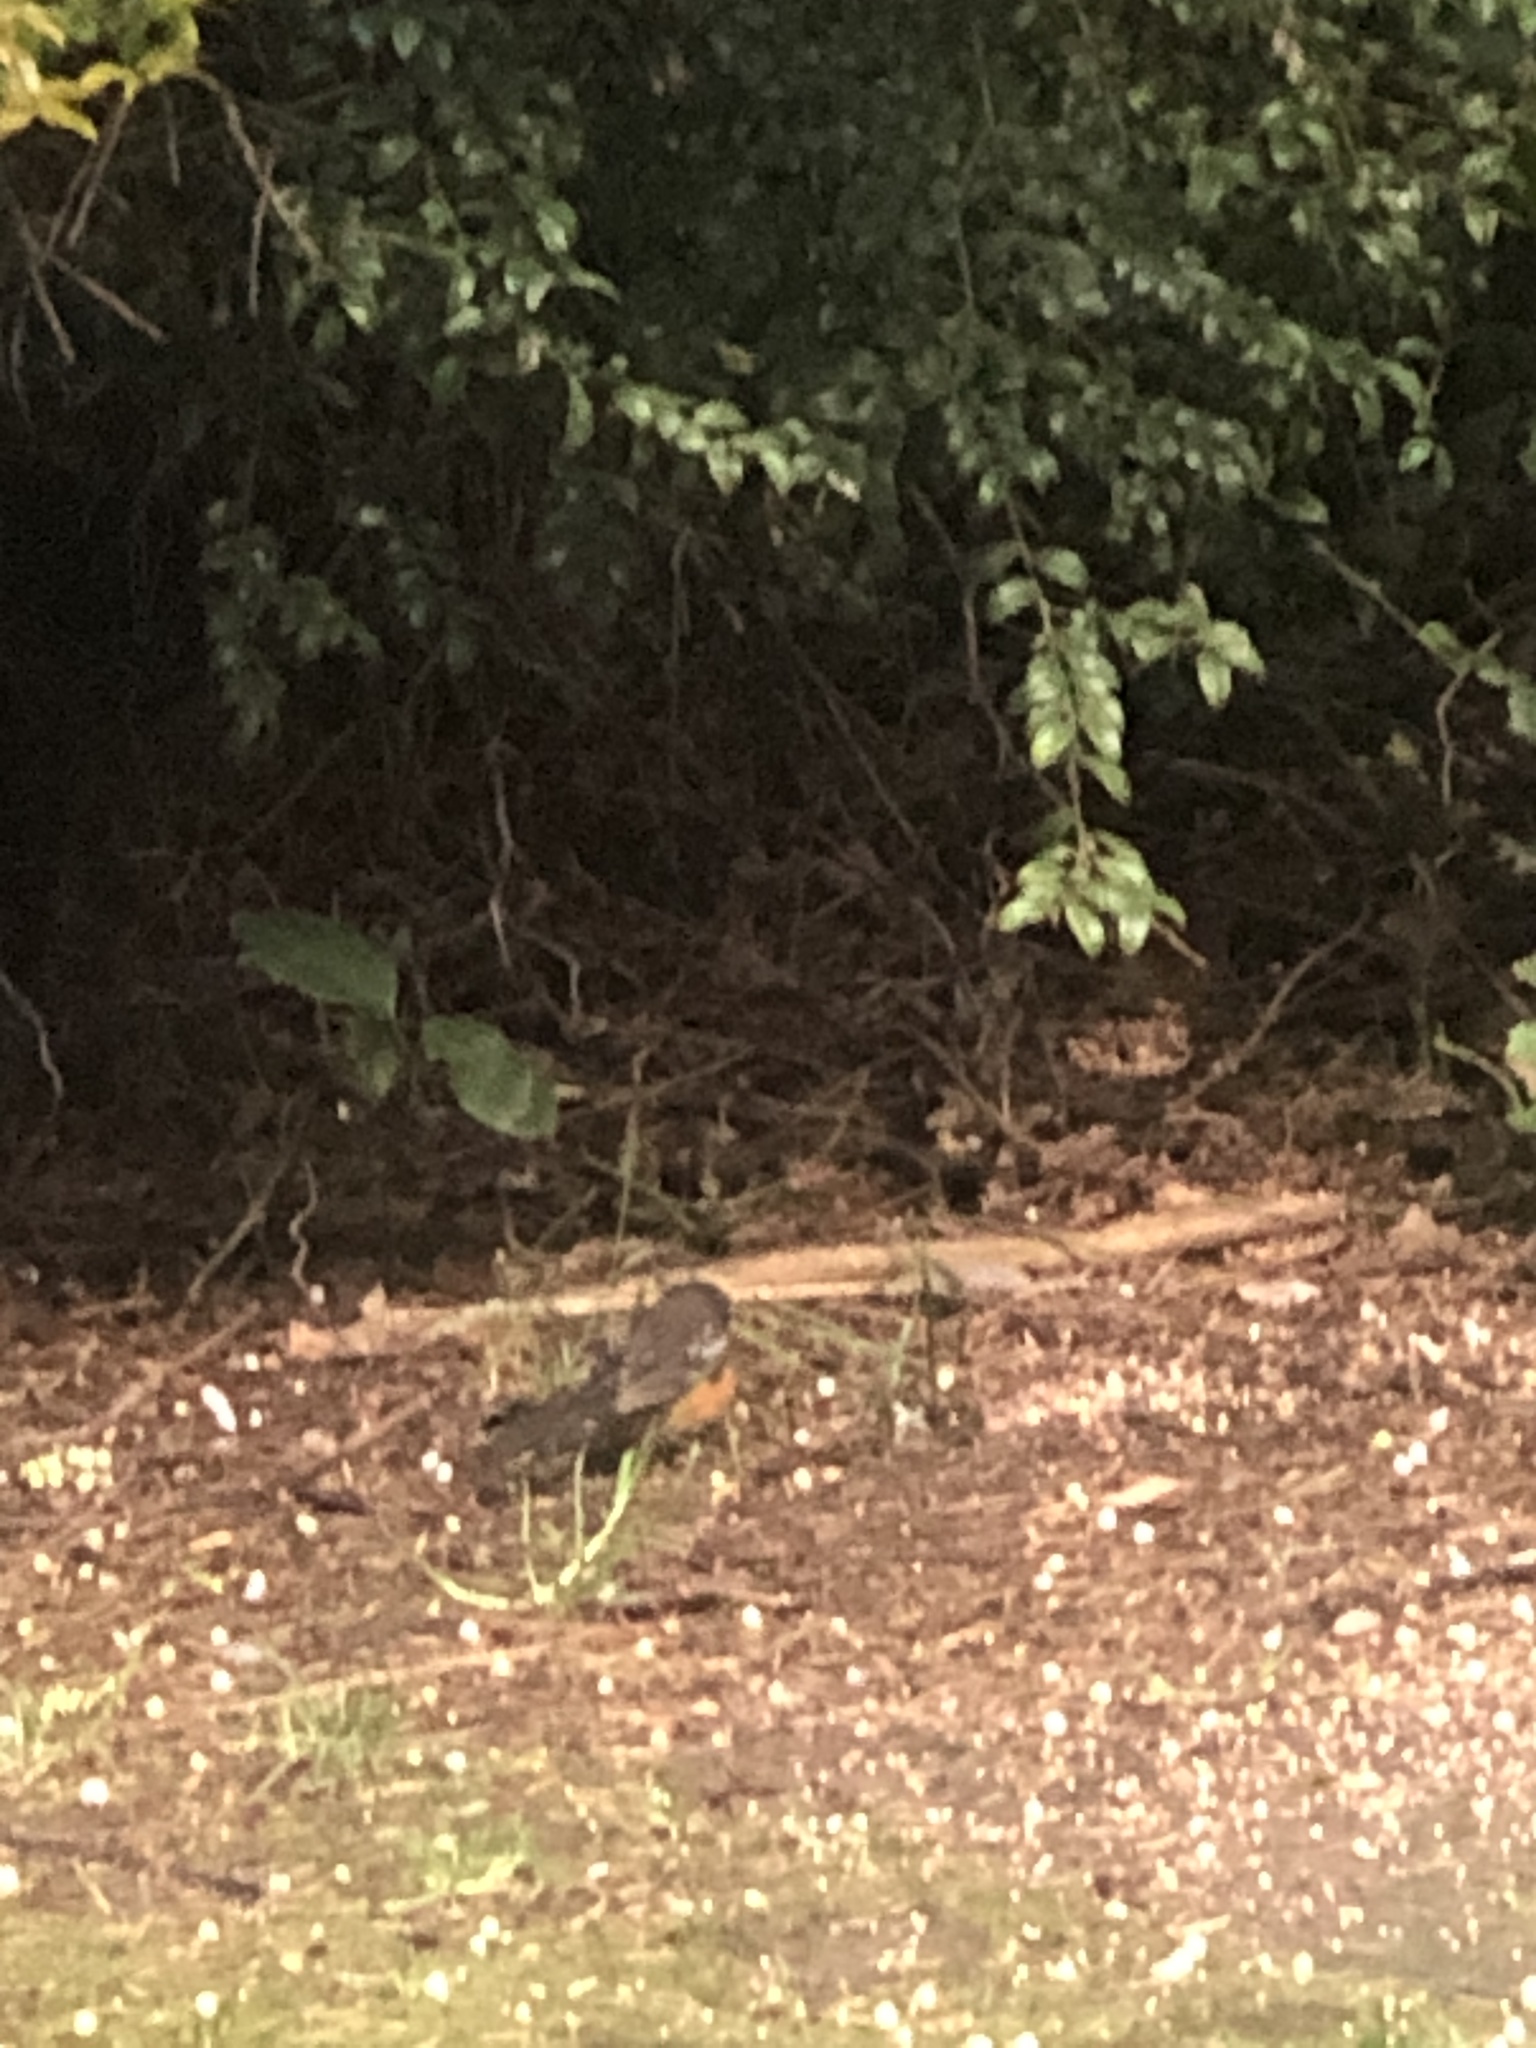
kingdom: Animalia
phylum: Chordata
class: Aves
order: Passeriformes
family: Passerellidae
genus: Pipilo
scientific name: Pipilo maculatus
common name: Spotted towhee
